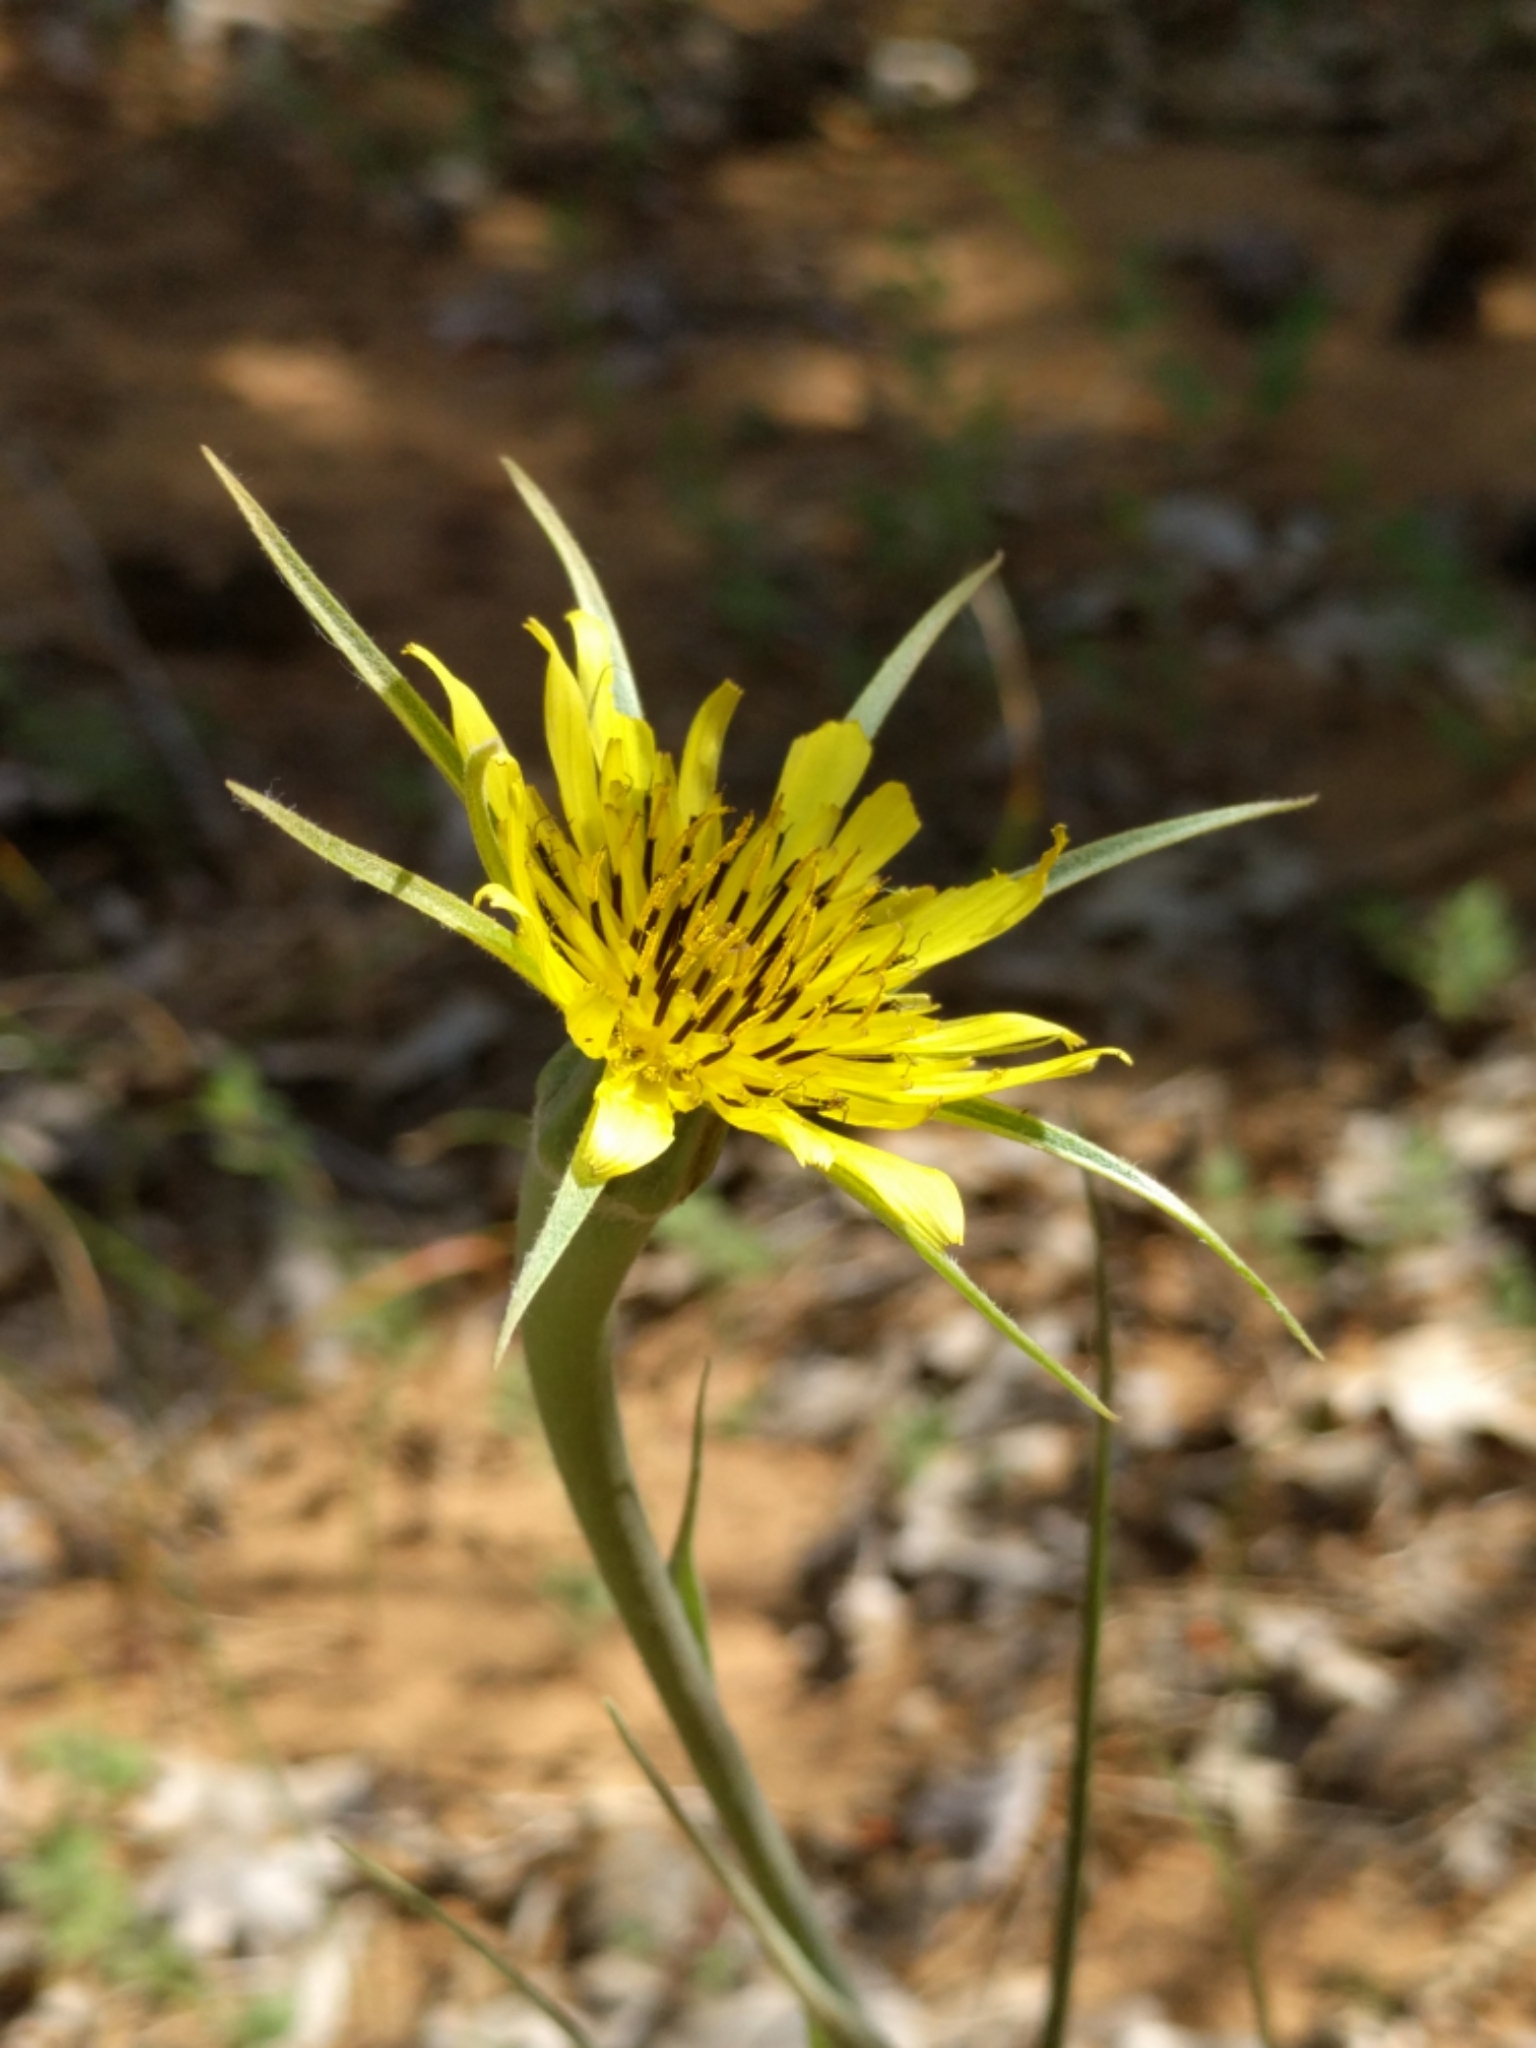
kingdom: Plantae
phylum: Tracheophyta
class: Magnoliopsida
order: Asterales
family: Asteraceae
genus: Tragopogon
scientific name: Tragopogon dubius
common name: Yellow salsify
